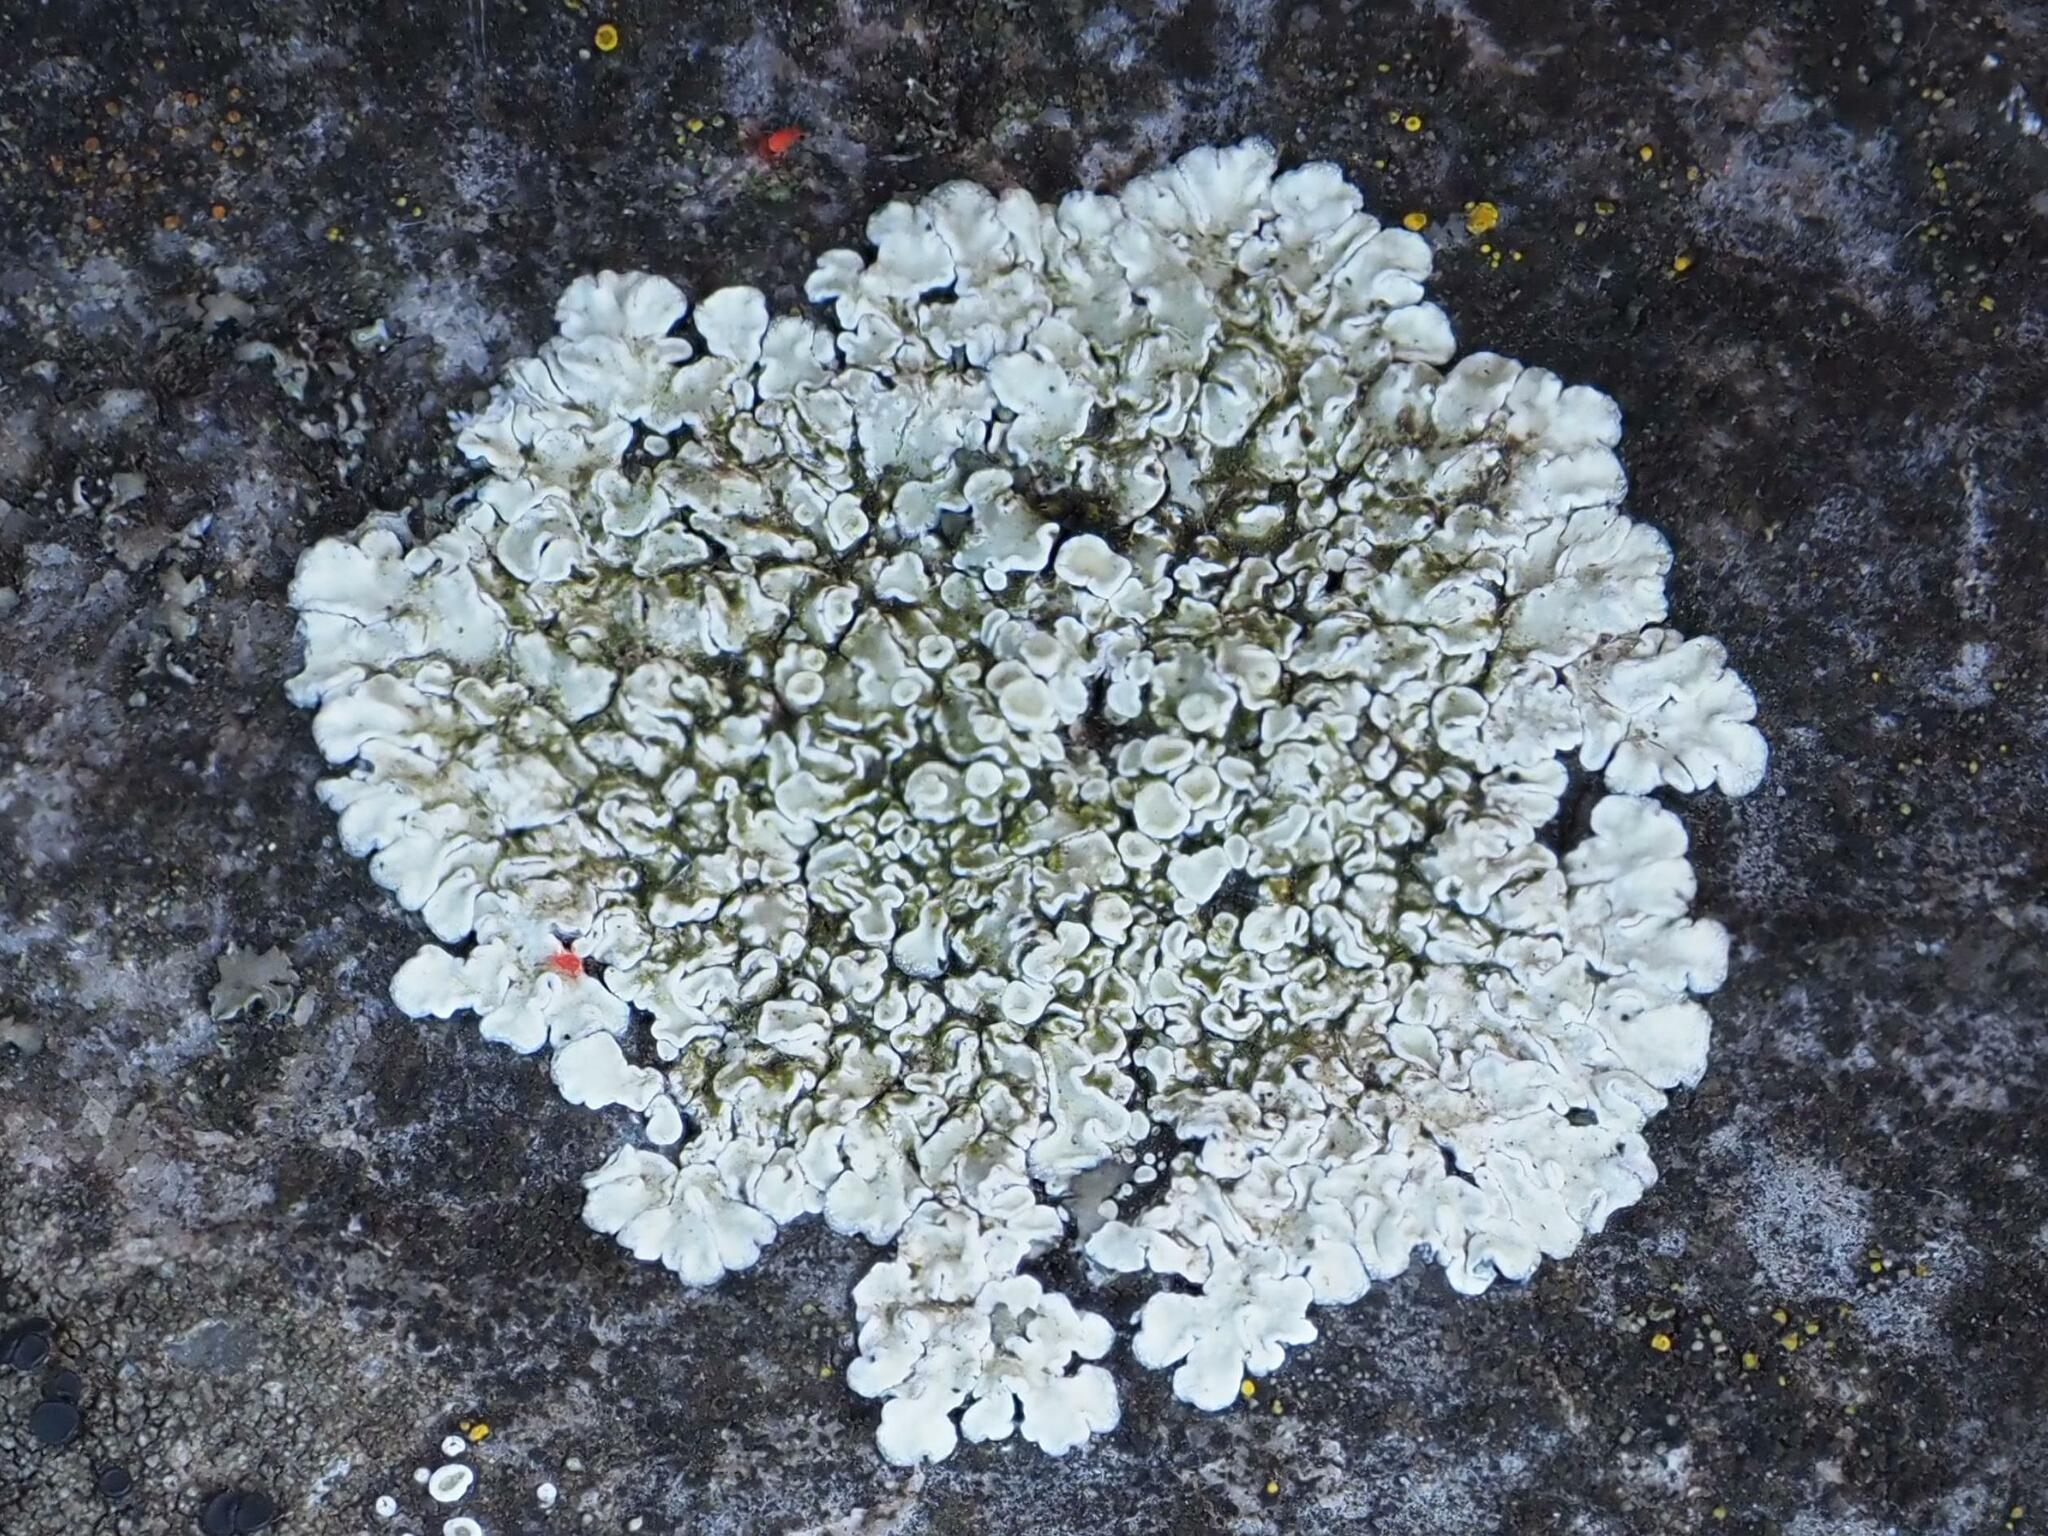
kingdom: Fungi
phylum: Ascomycota
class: Lecanoromycetes
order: Lecanorales
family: Lecanoraceae
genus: Protoparmeliopsis
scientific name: Protoparmeliopsis muralis
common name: Stonewall rim lichen
